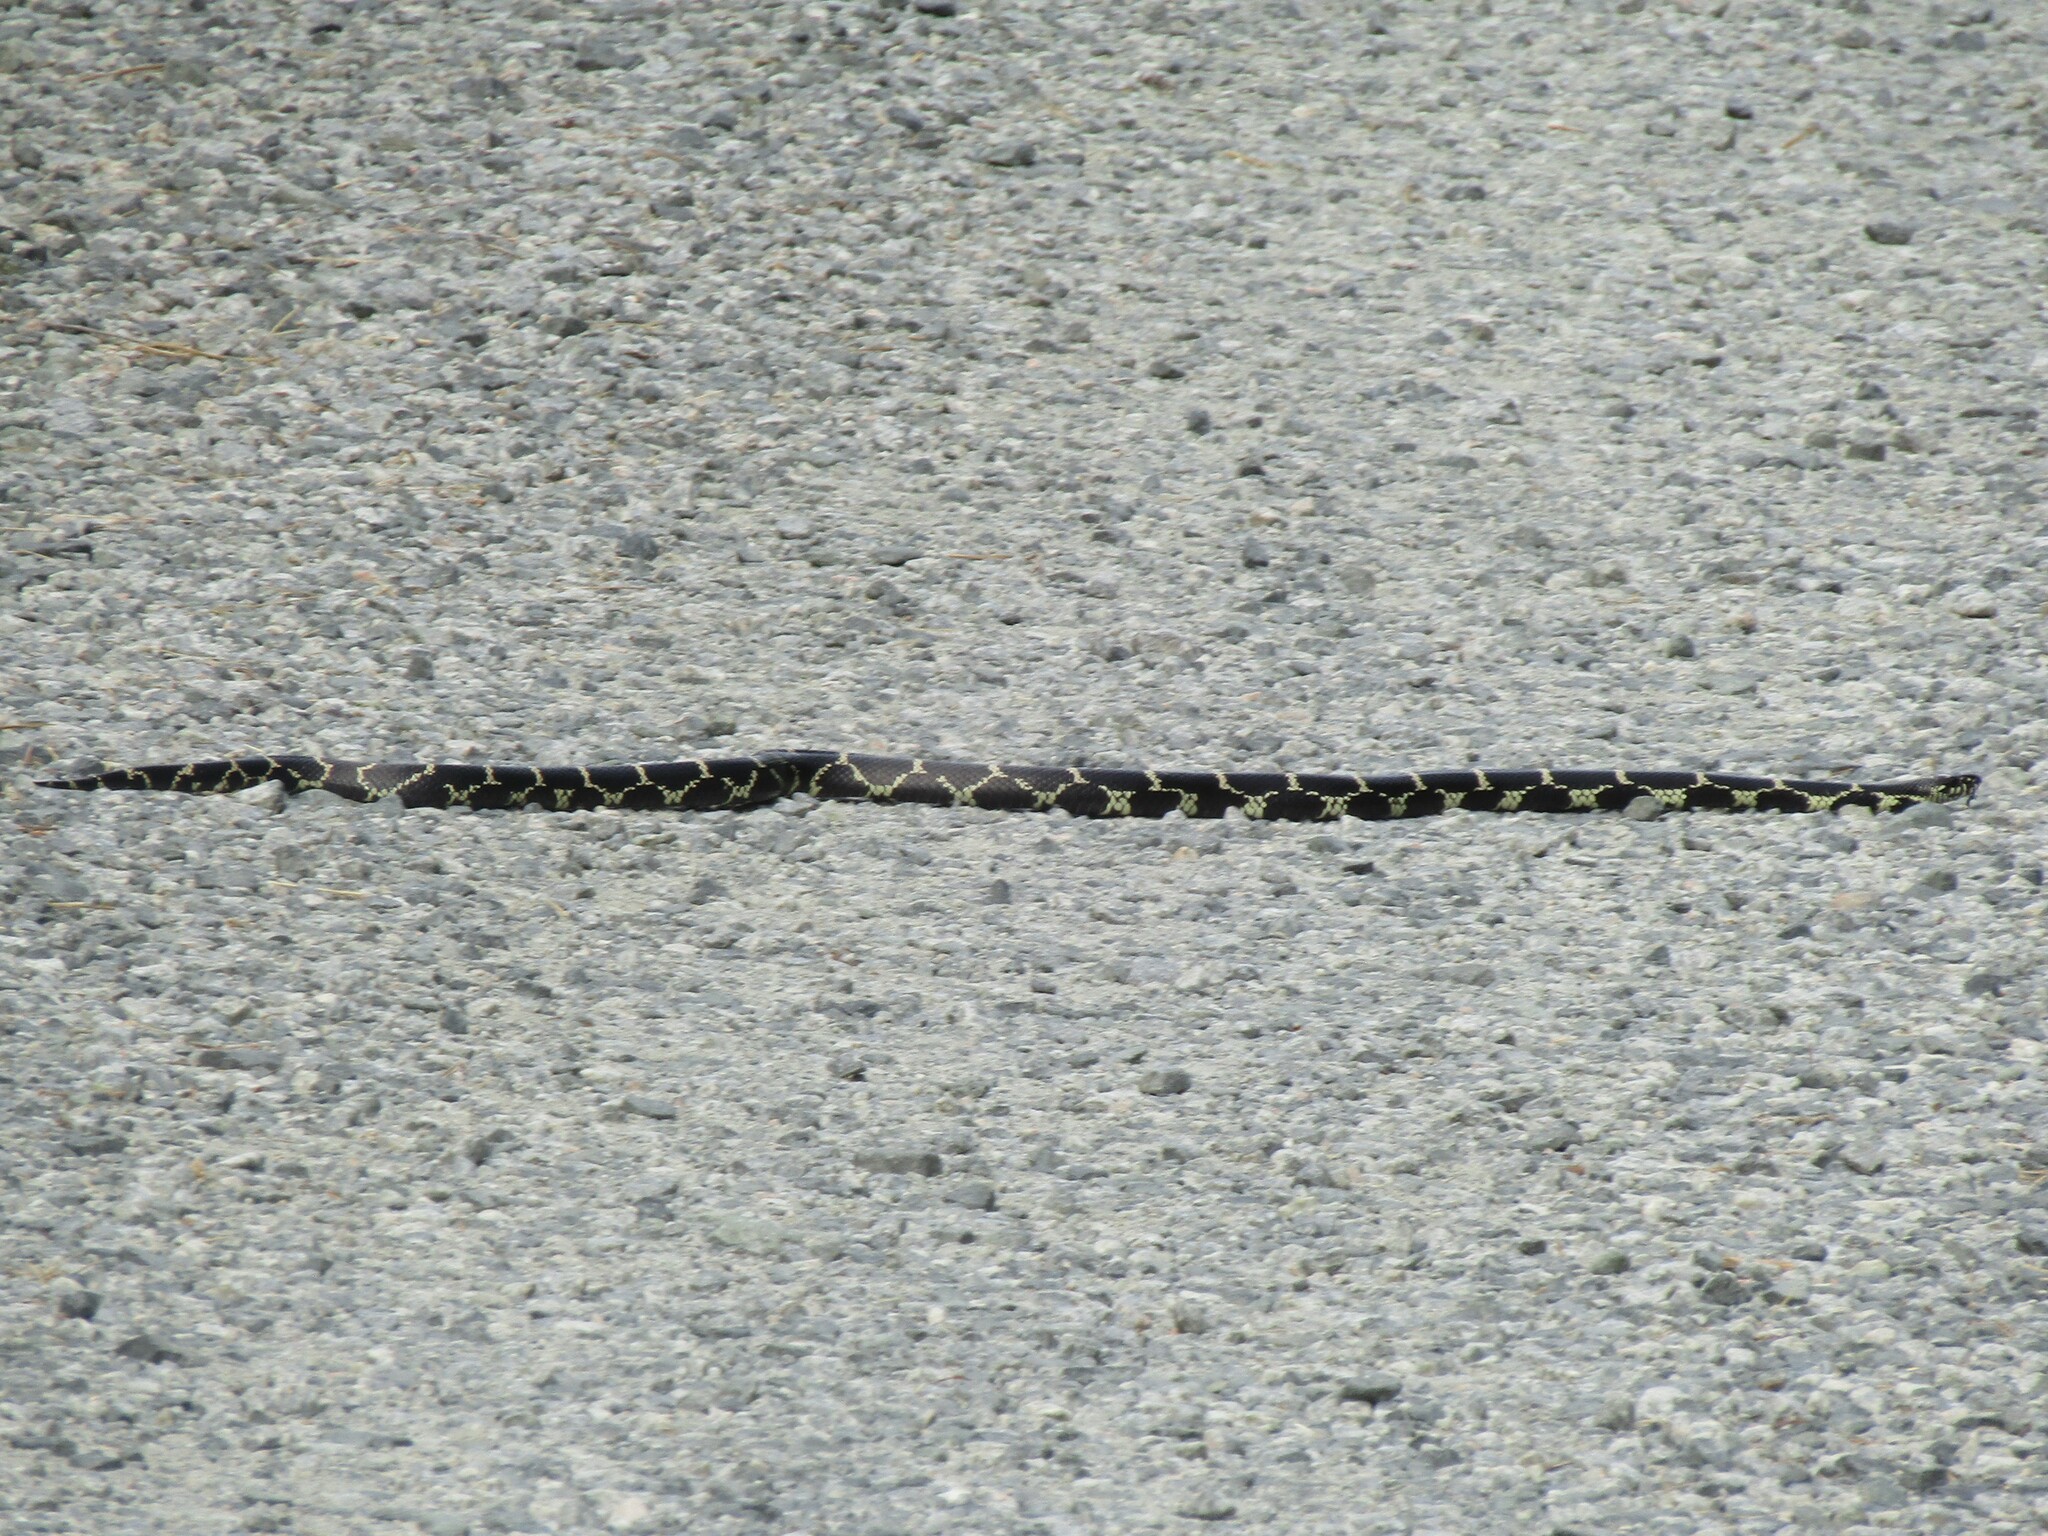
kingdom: Animalia
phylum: Chordata
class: Squamata
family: Colubridae
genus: Lampropeltis
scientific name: Lampropeltis getula
